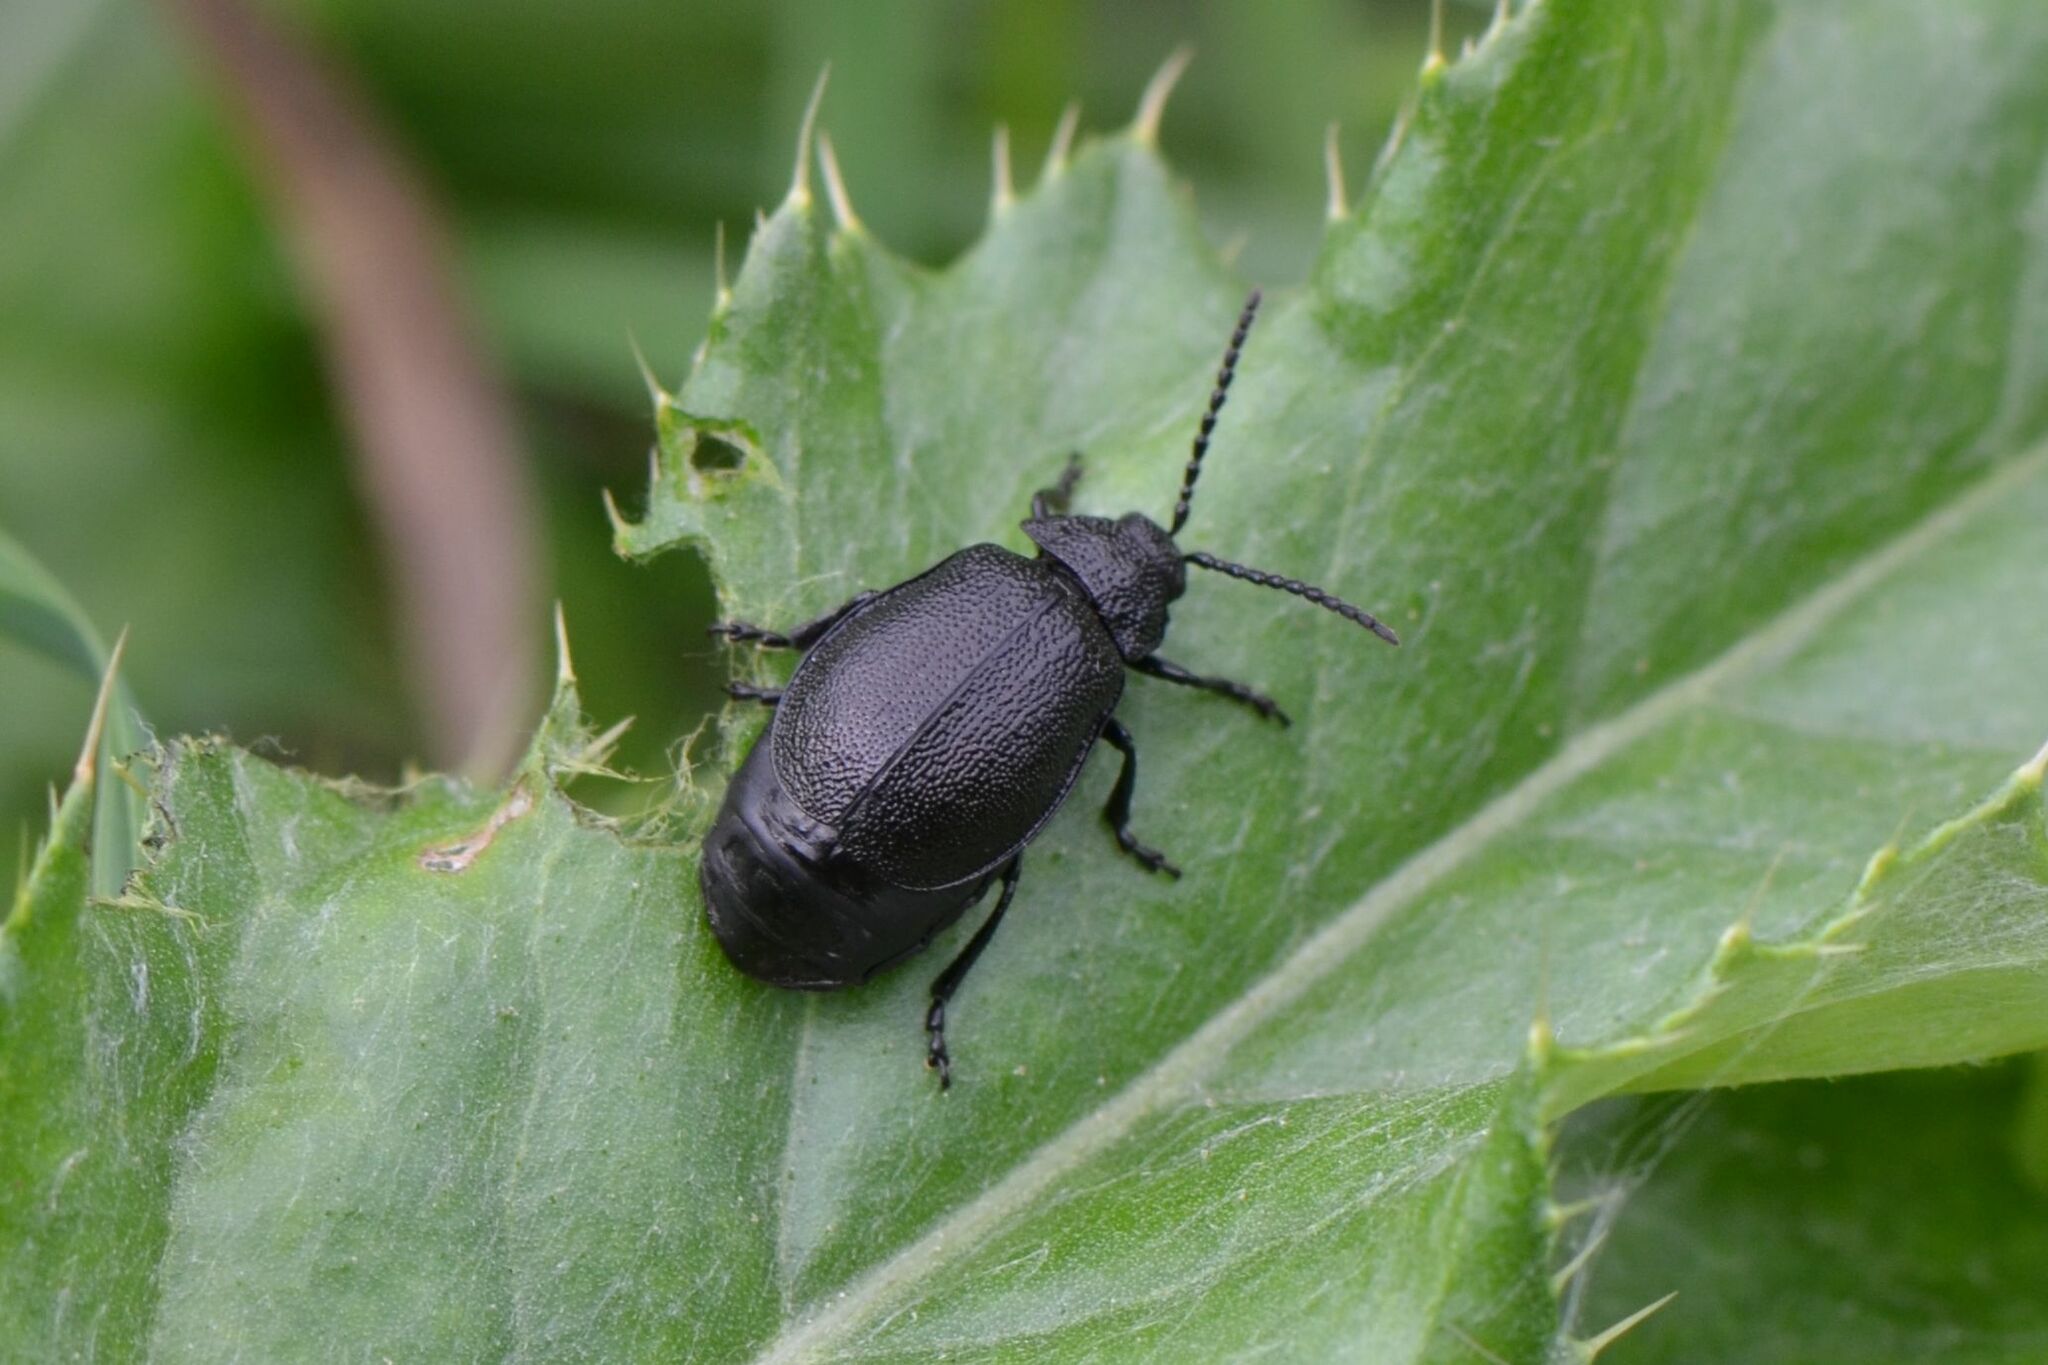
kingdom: Animalia
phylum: Arthropoda
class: Insecta
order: Coleoptera
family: Chrysomelidae
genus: Galeruca
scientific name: Galeruca tanaceti
